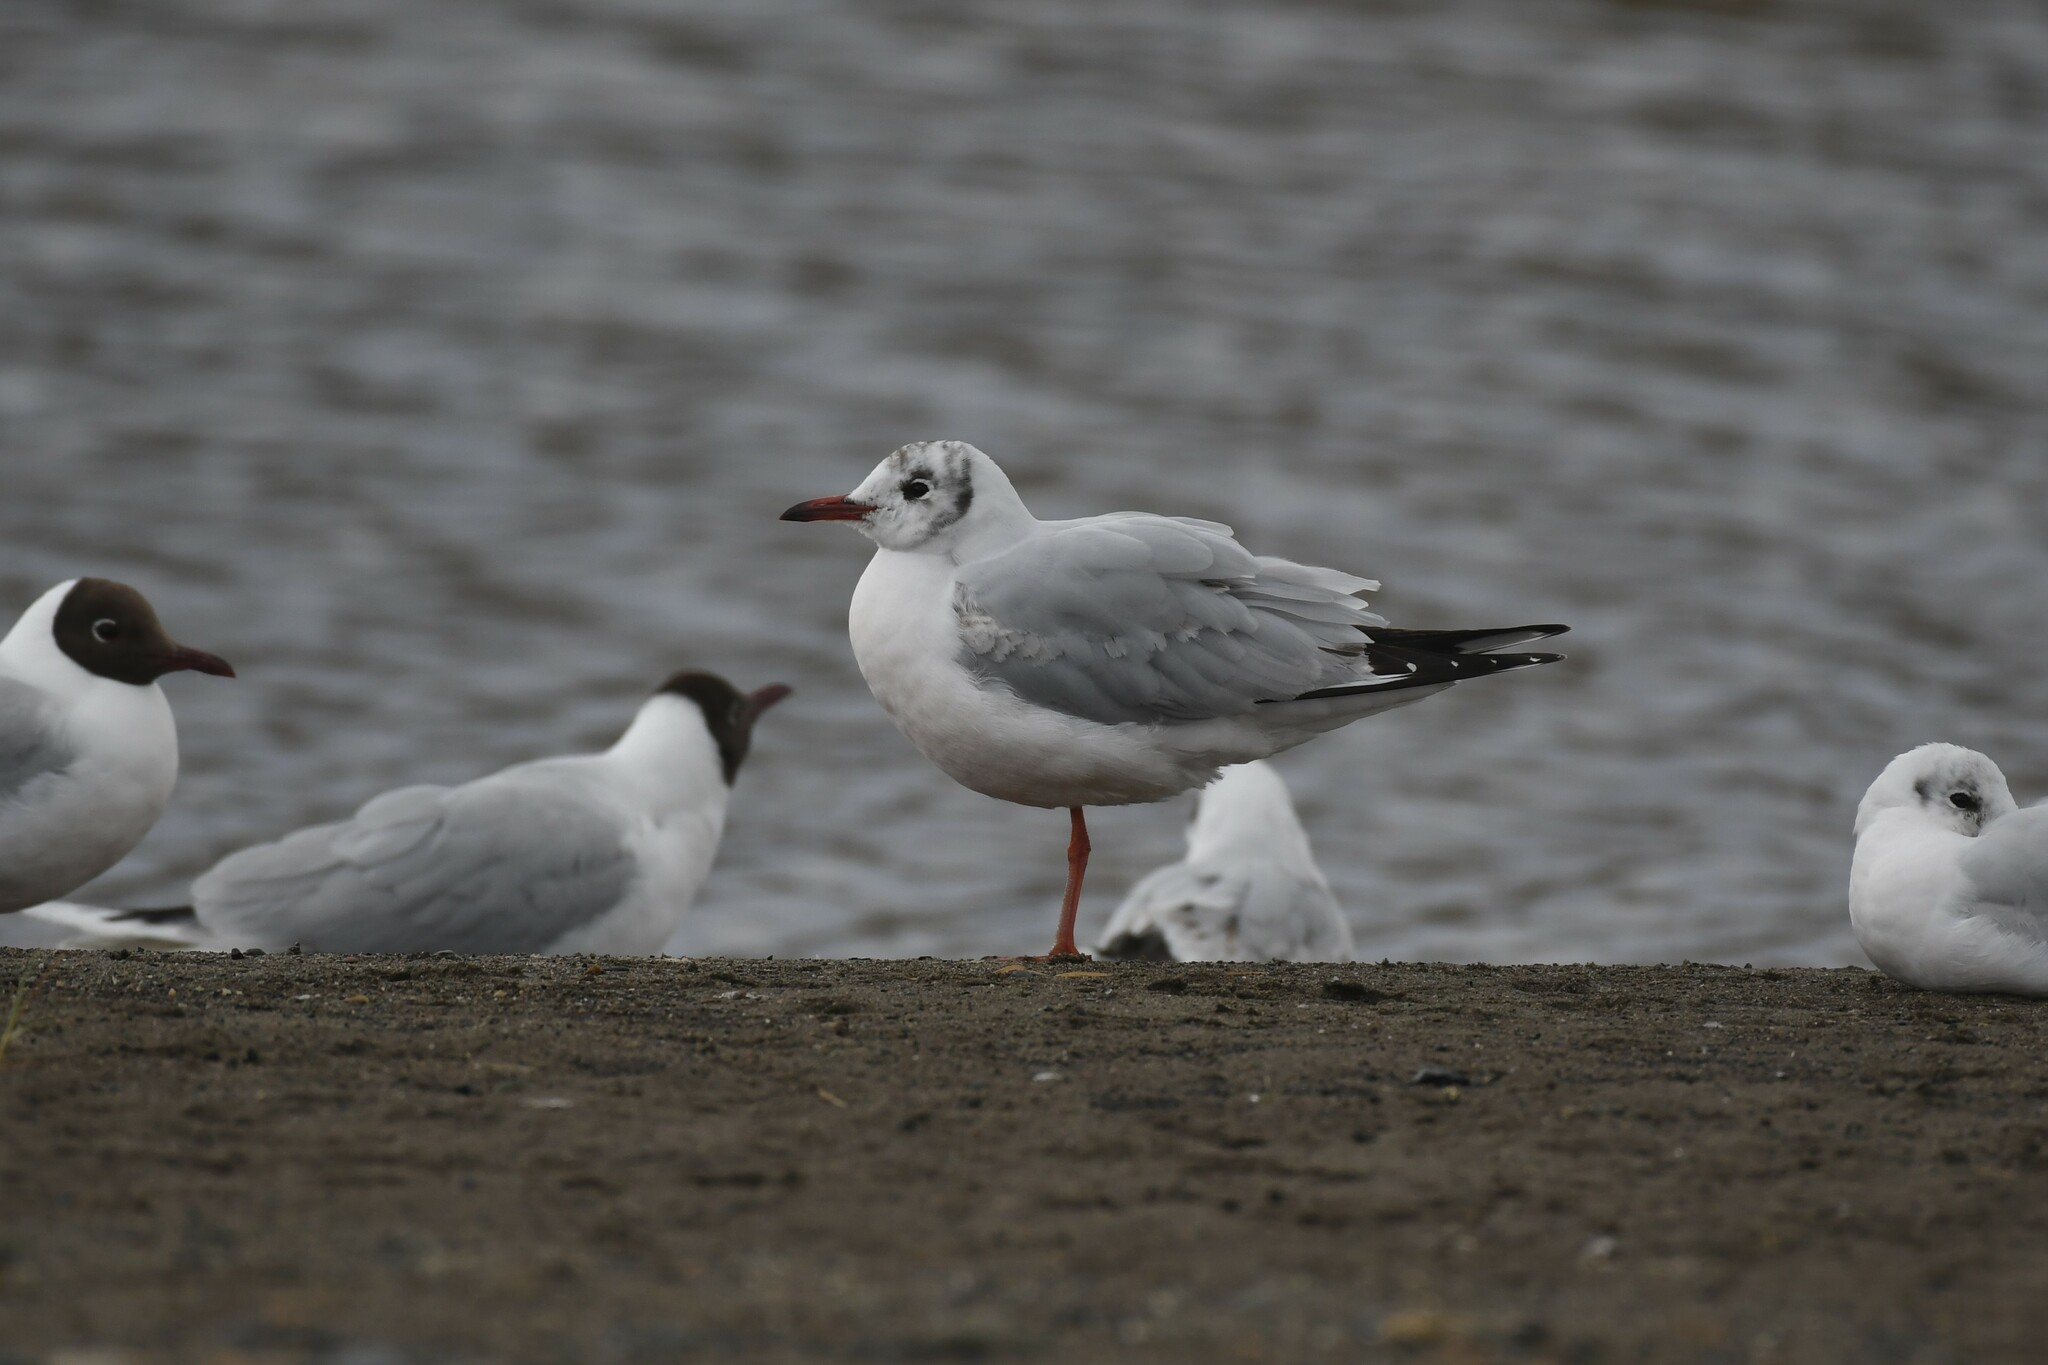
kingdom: Animalia
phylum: Chordata
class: Aves
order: Charadriiformes
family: Laridae
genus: Chroicocephalus
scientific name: Chroicocephalus maculipennis
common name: Brown-hooded gull
